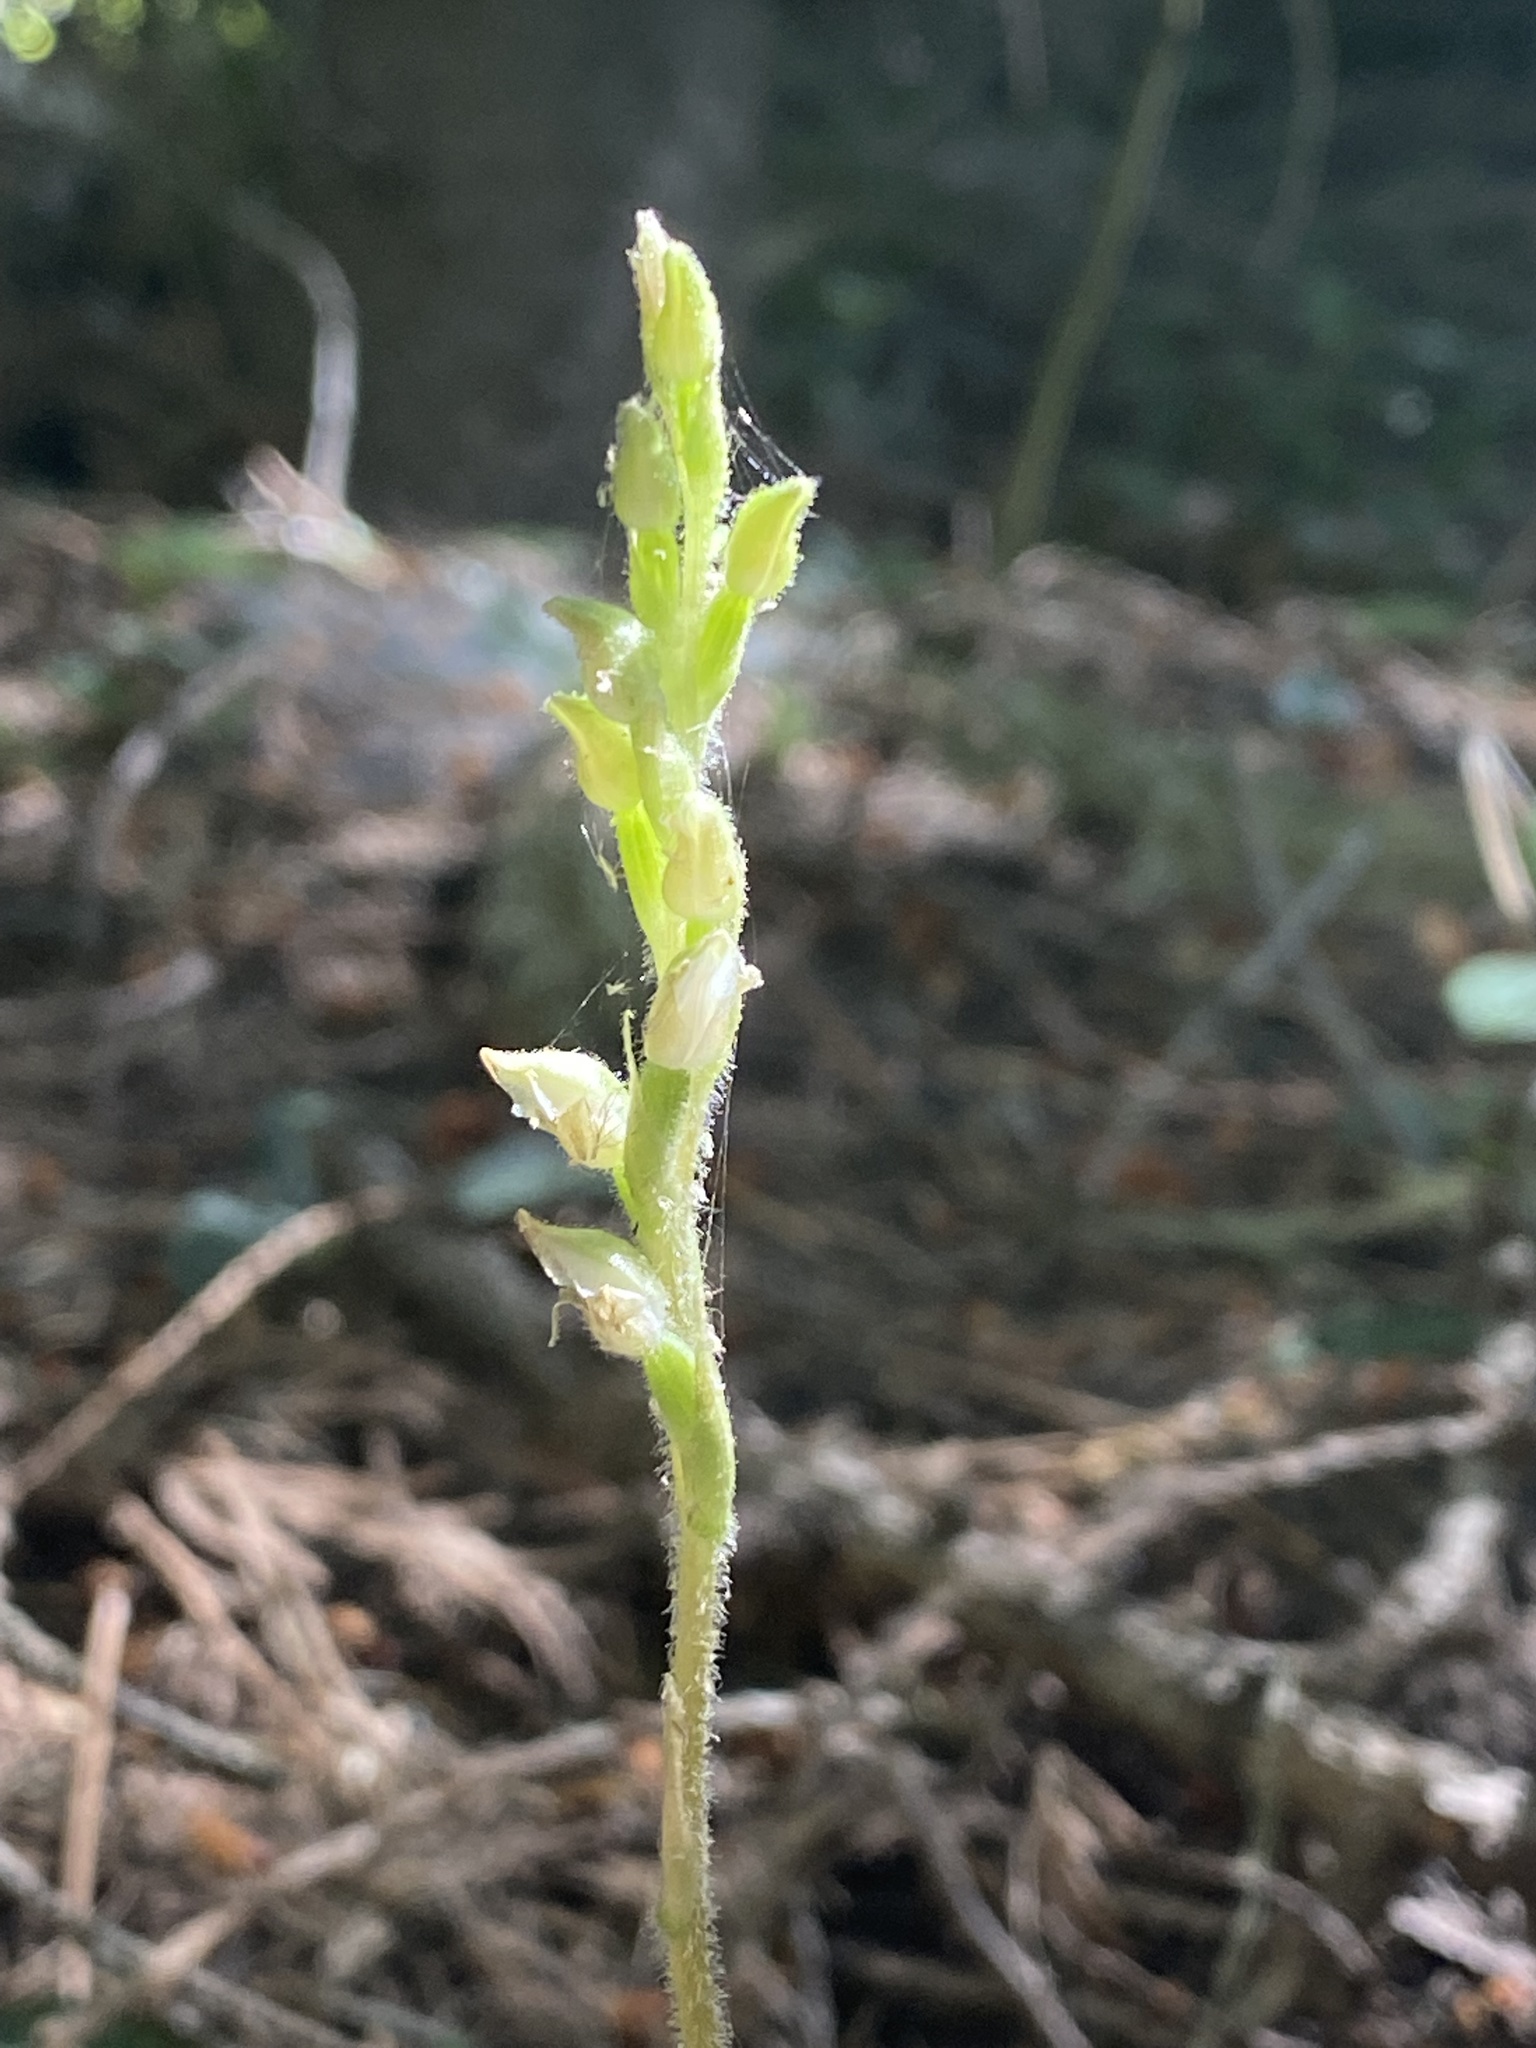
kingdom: Plantae
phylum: Tracheophyta
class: Liliopsida
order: Asparagales
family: Orchidaceae
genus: Goodyera
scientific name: Goodyera oblongifolia
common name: Giant rattlesnake-plantain
